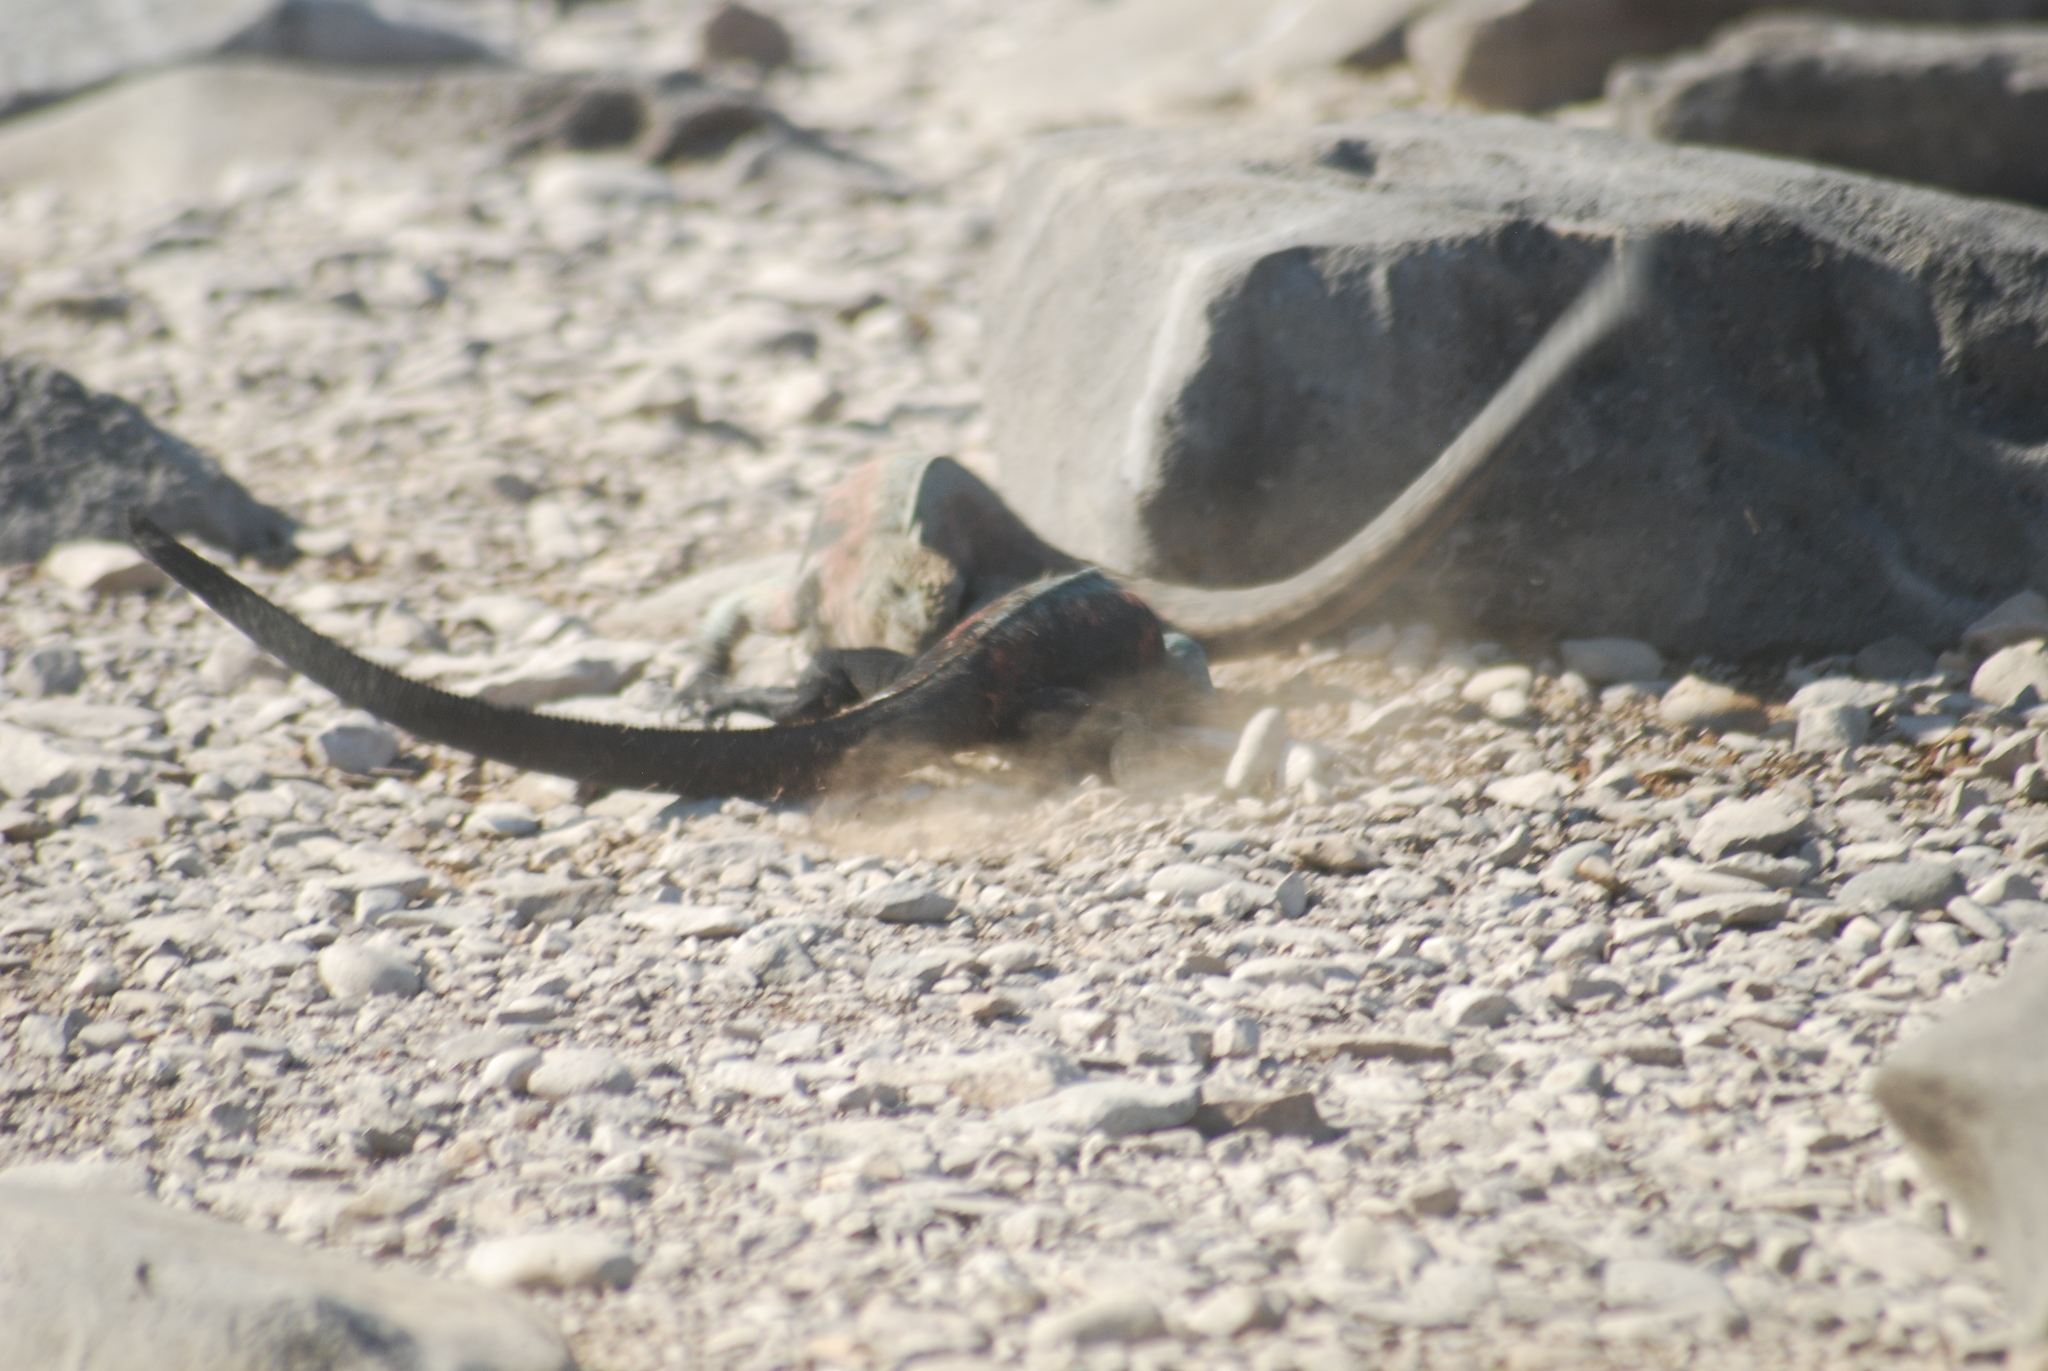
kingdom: Animalia
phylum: Chordata
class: Squamata
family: Iguanidae
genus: Amblyrhynchus
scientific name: Amblyrhynchus cristatus
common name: Marine iguana
